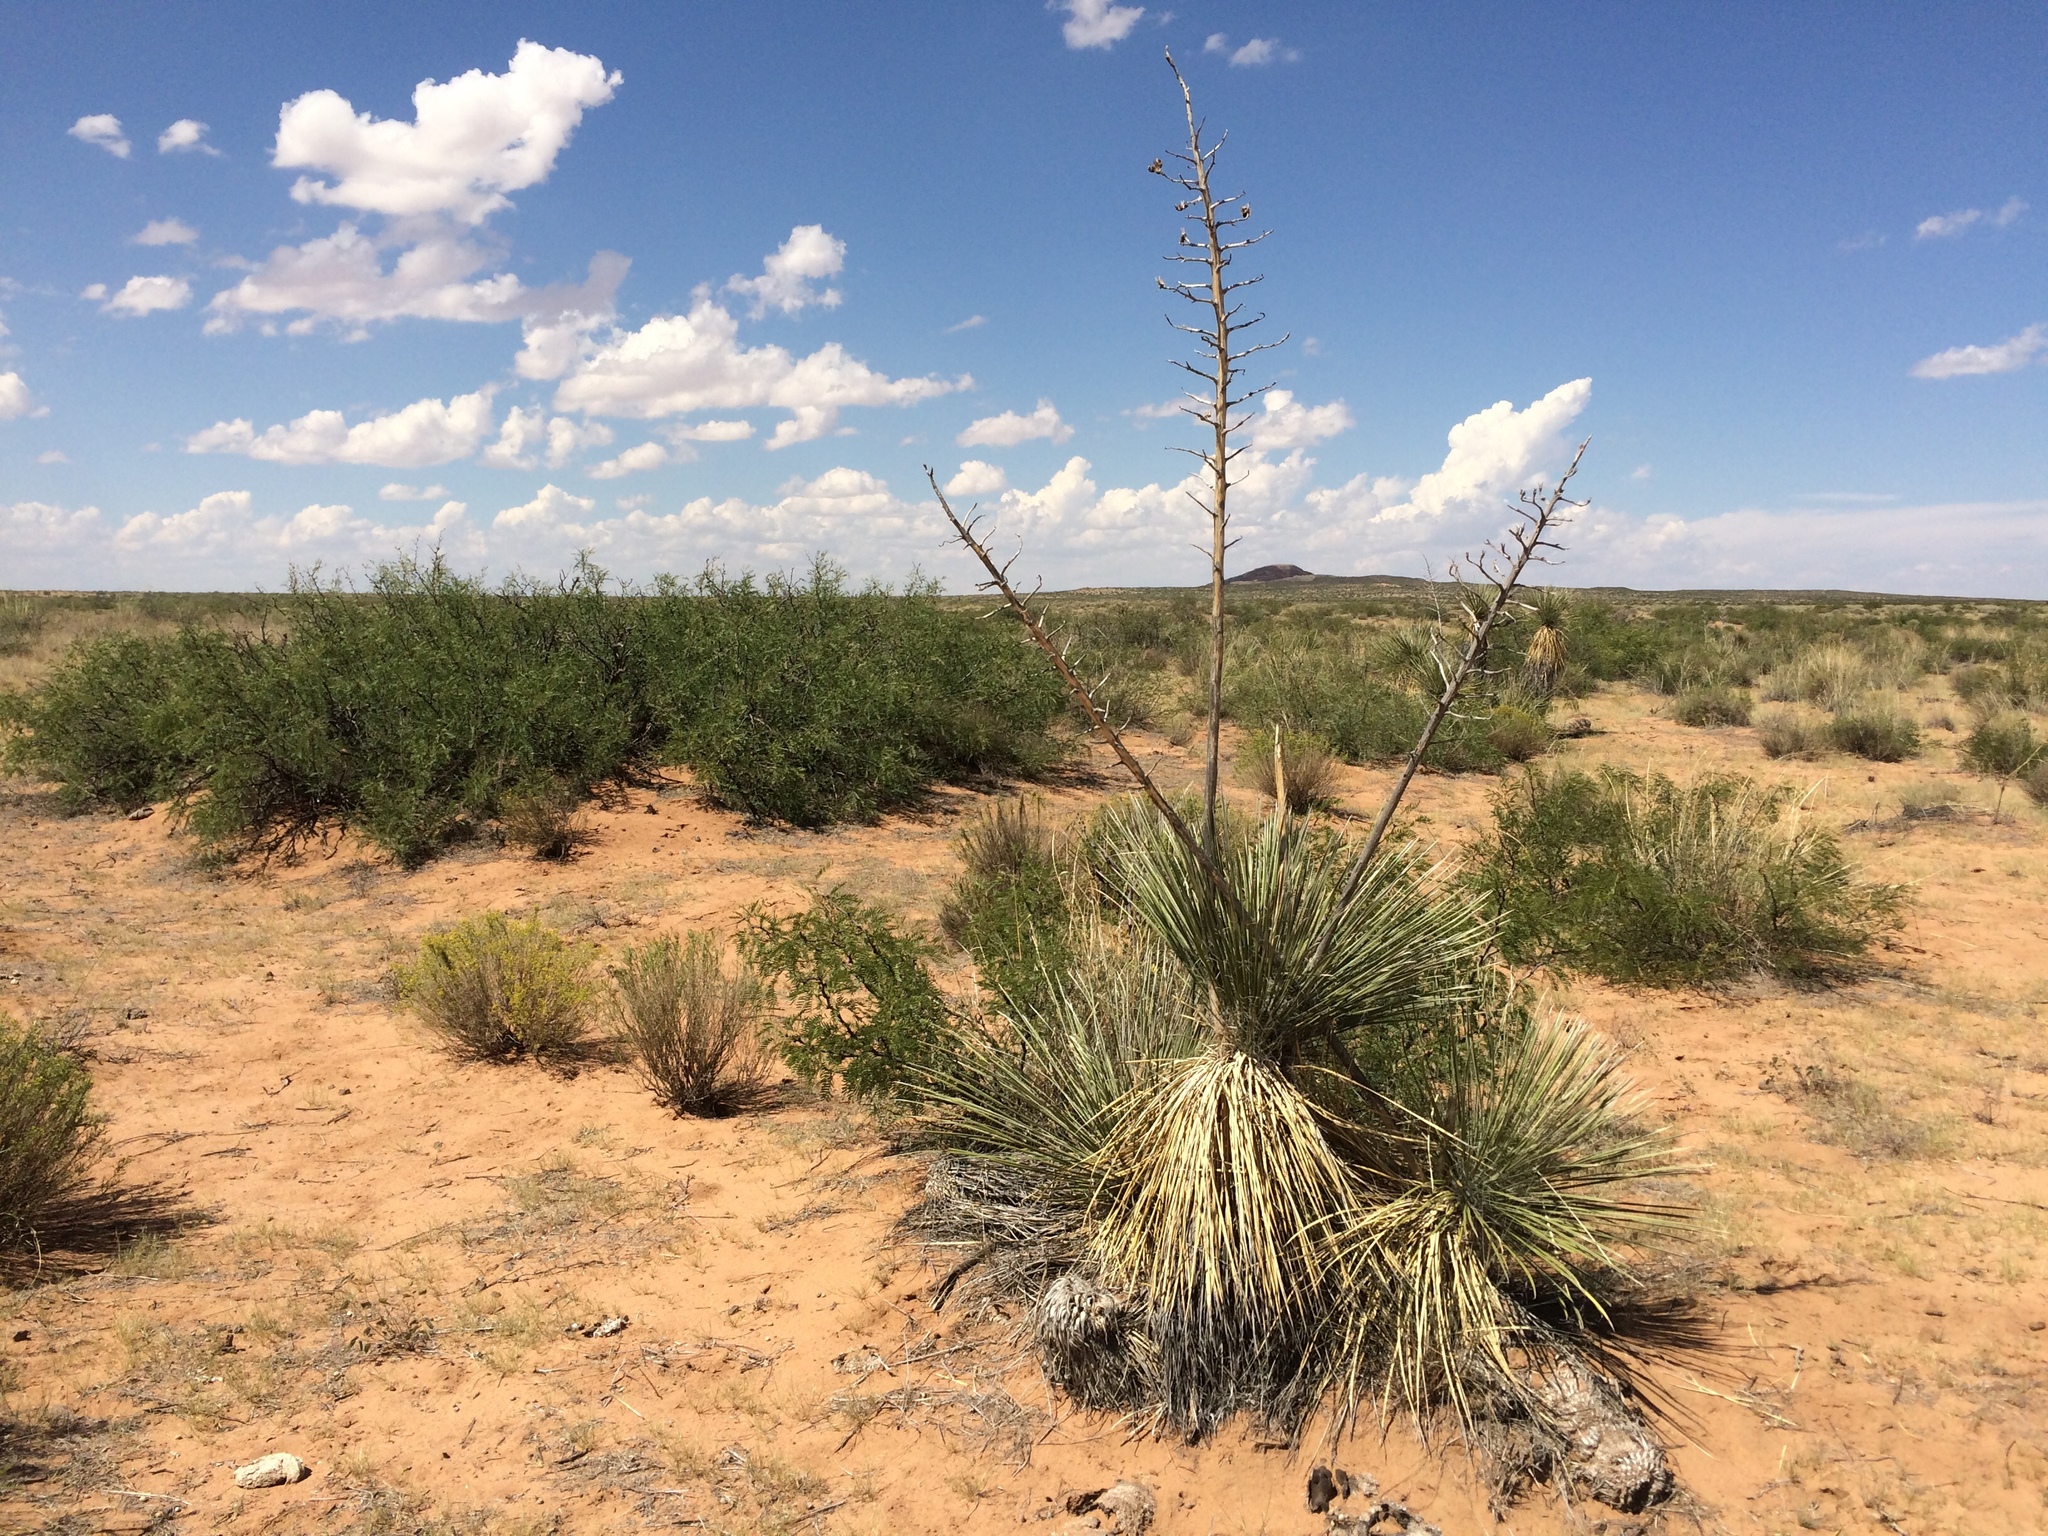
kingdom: Plantae
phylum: Tracheophyta
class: Liliopsida
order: Asparagales
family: Asparagaceae
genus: Yucca
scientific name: Yucca elata
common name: Palmella
